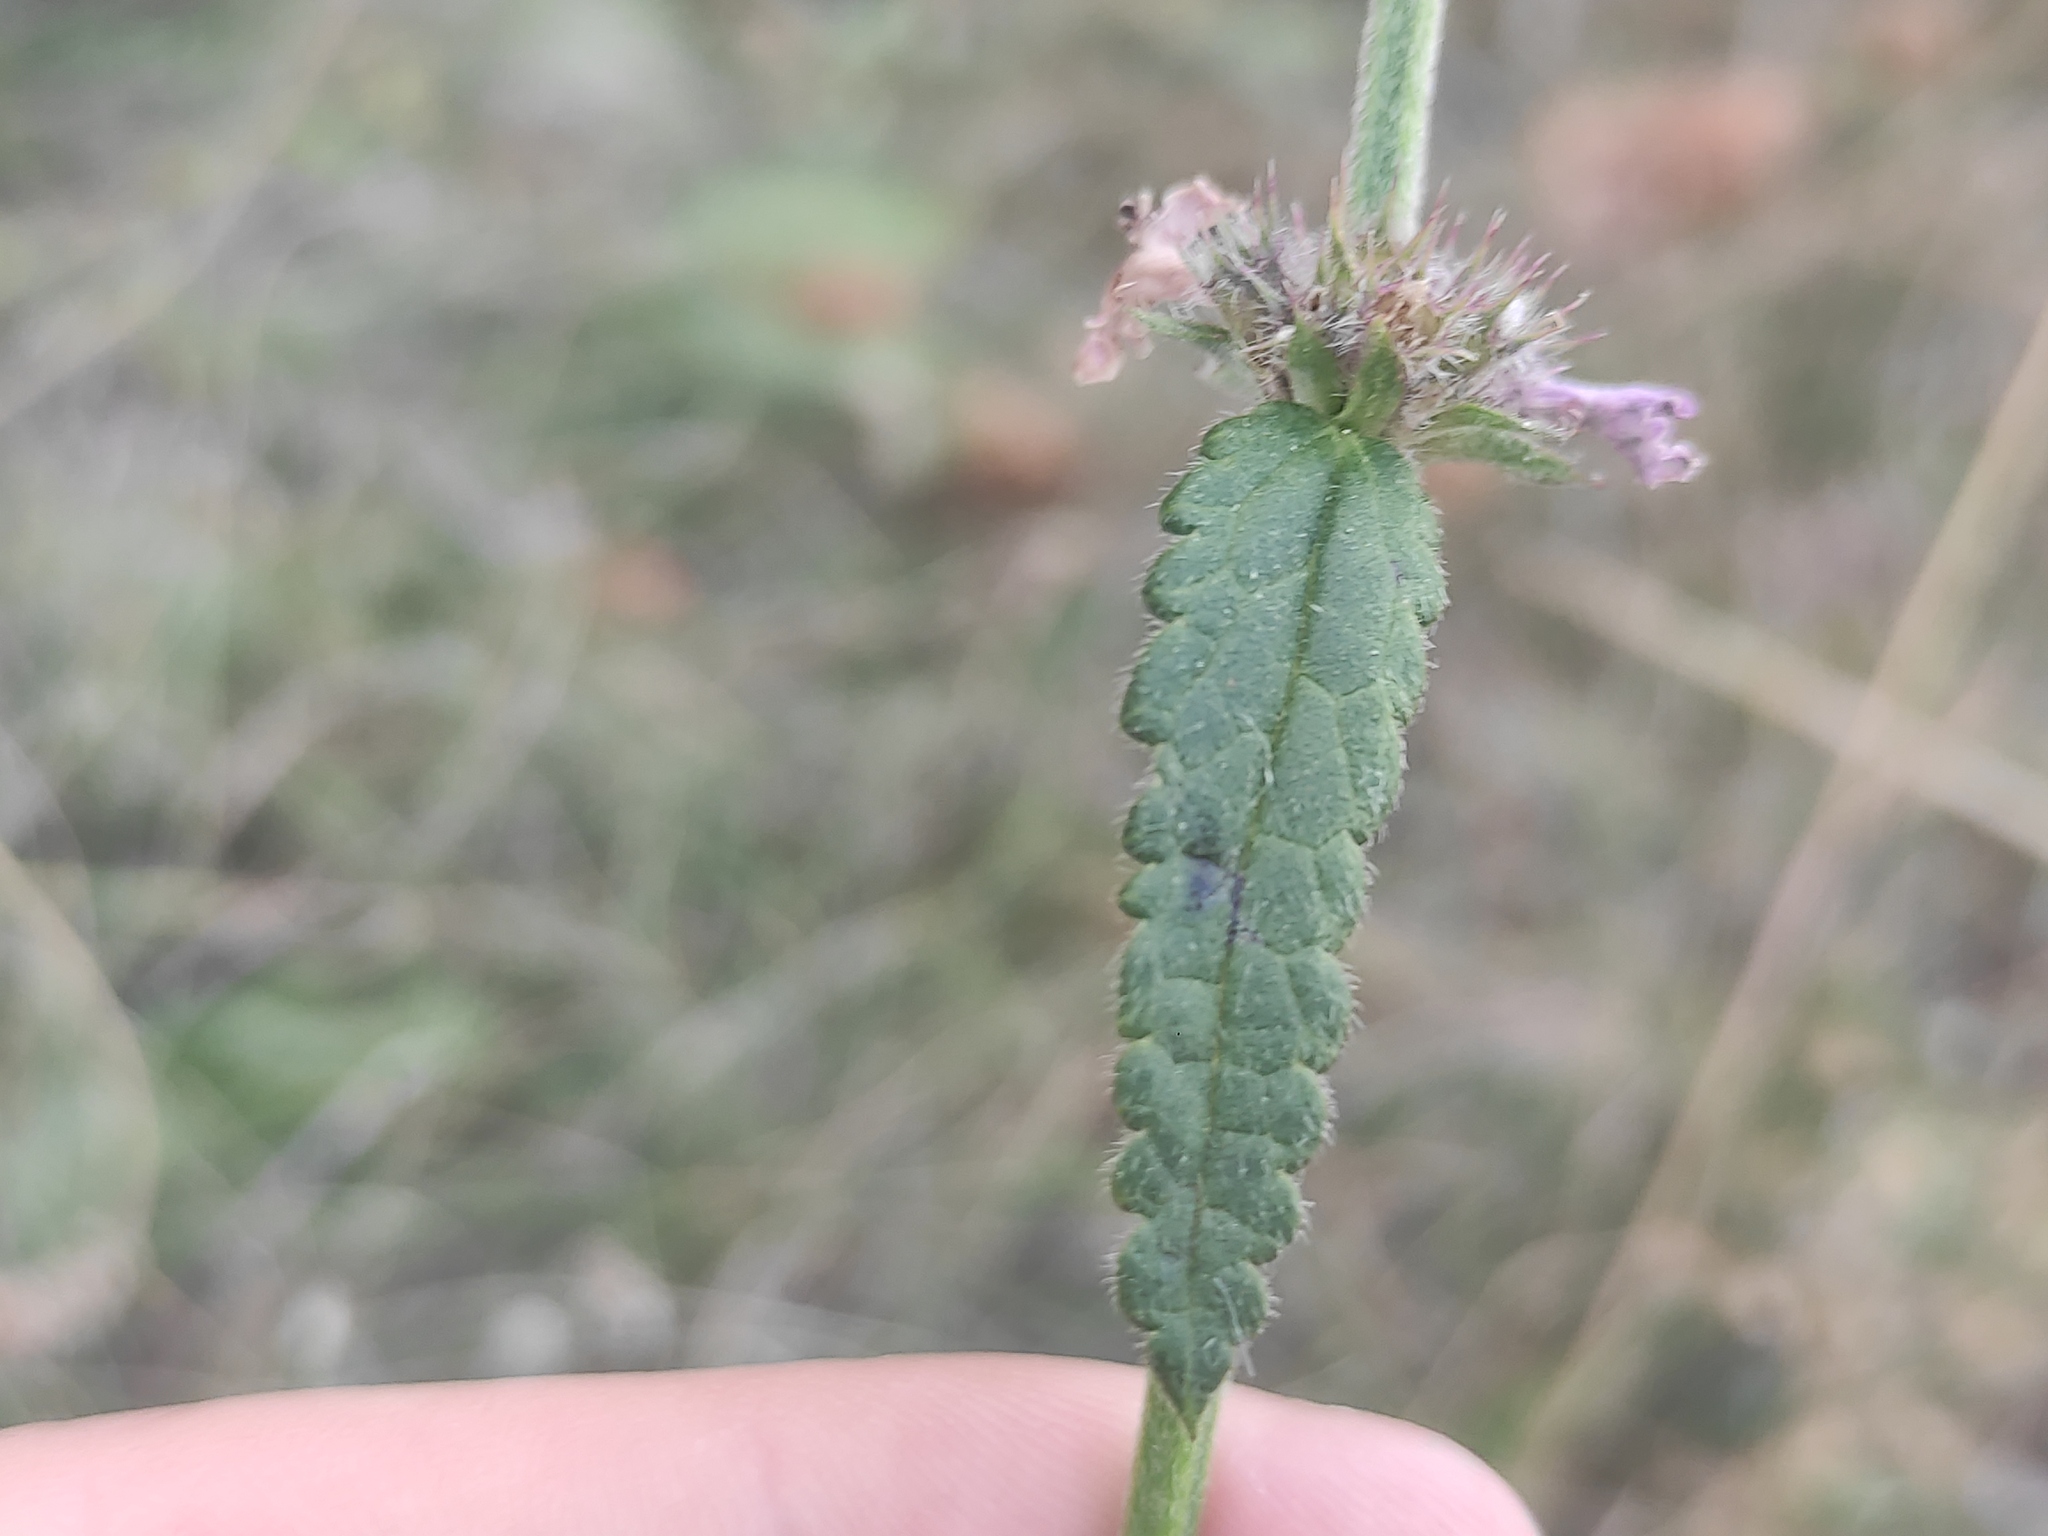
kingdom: Plantae
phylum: Tracheophyta
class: Magnoliopsida
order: Lamiales
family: Lamiaceae
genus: Betonica
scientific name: Betonica officinalis
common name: Bishop's-wort
